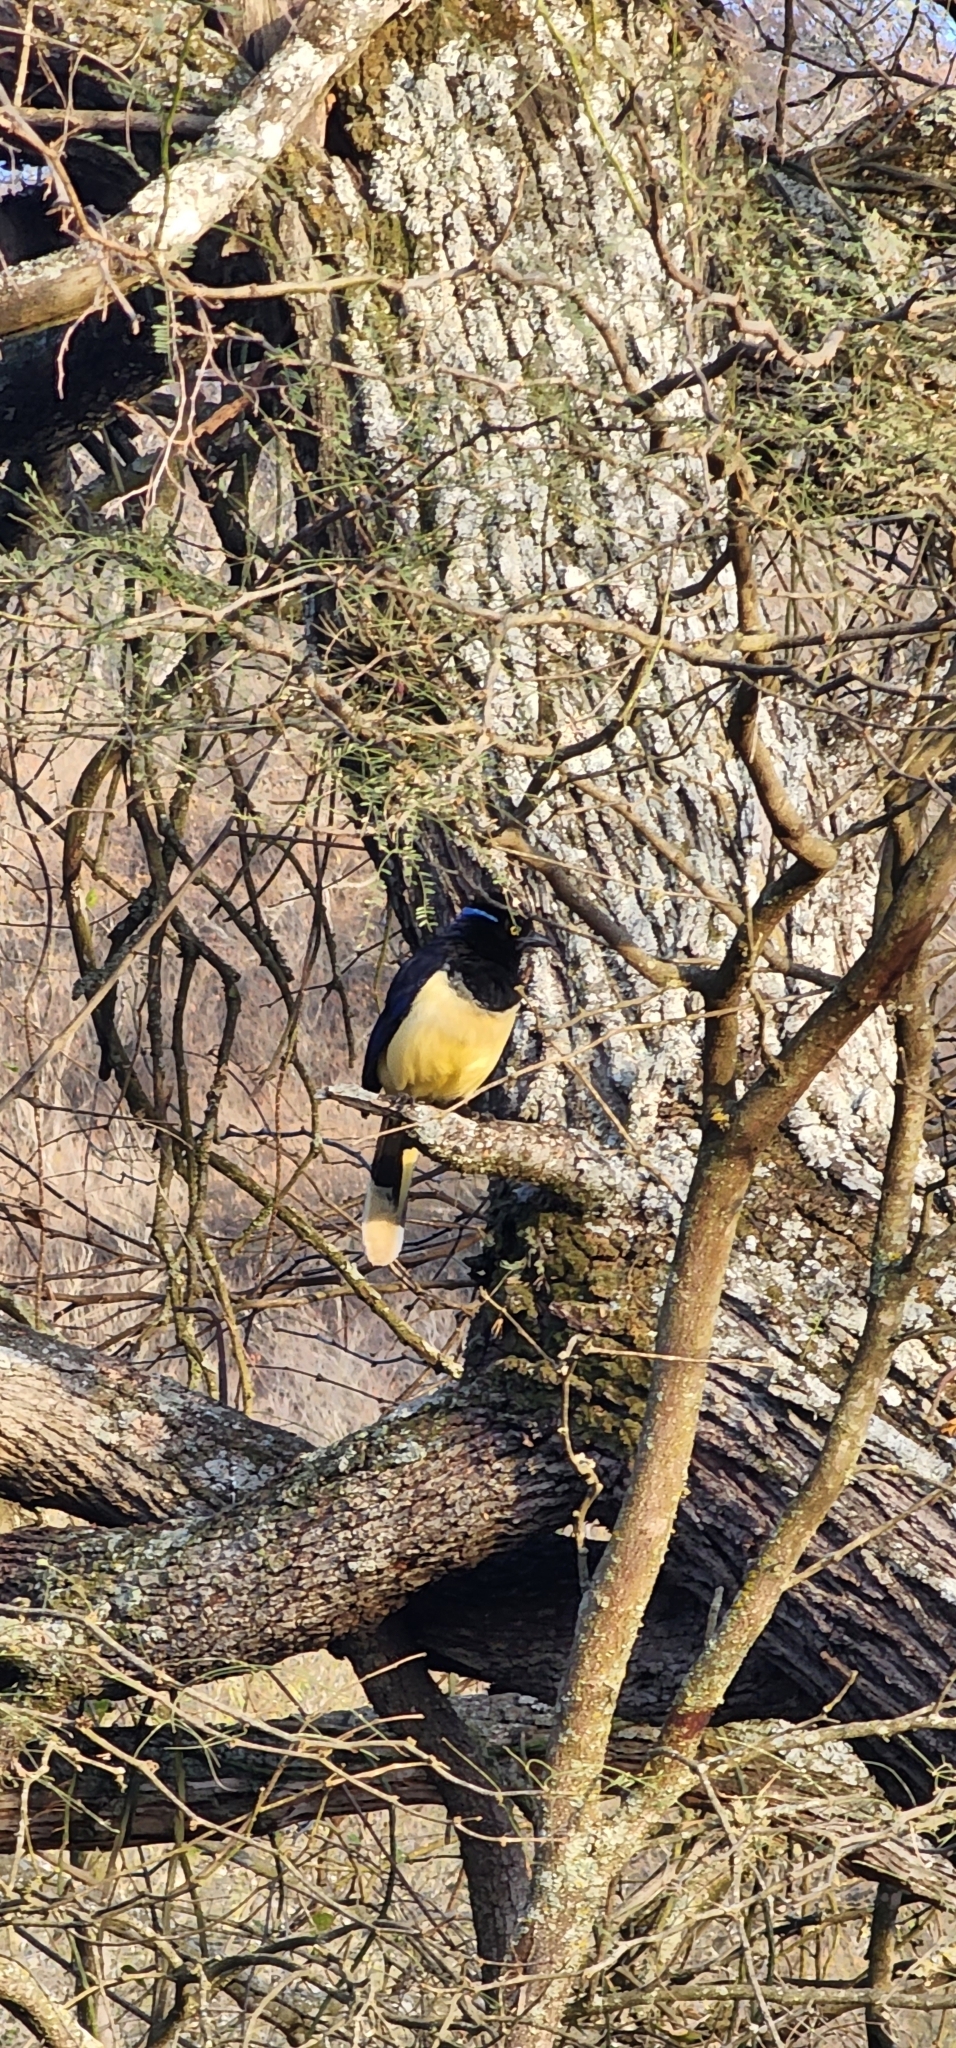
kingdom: Animalia
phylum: Chordata
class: Aves
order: Passeriformes
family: Corvidae
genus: Cyanocorax
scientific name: Cyanocorax chrysops
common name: Plush-crested jay
